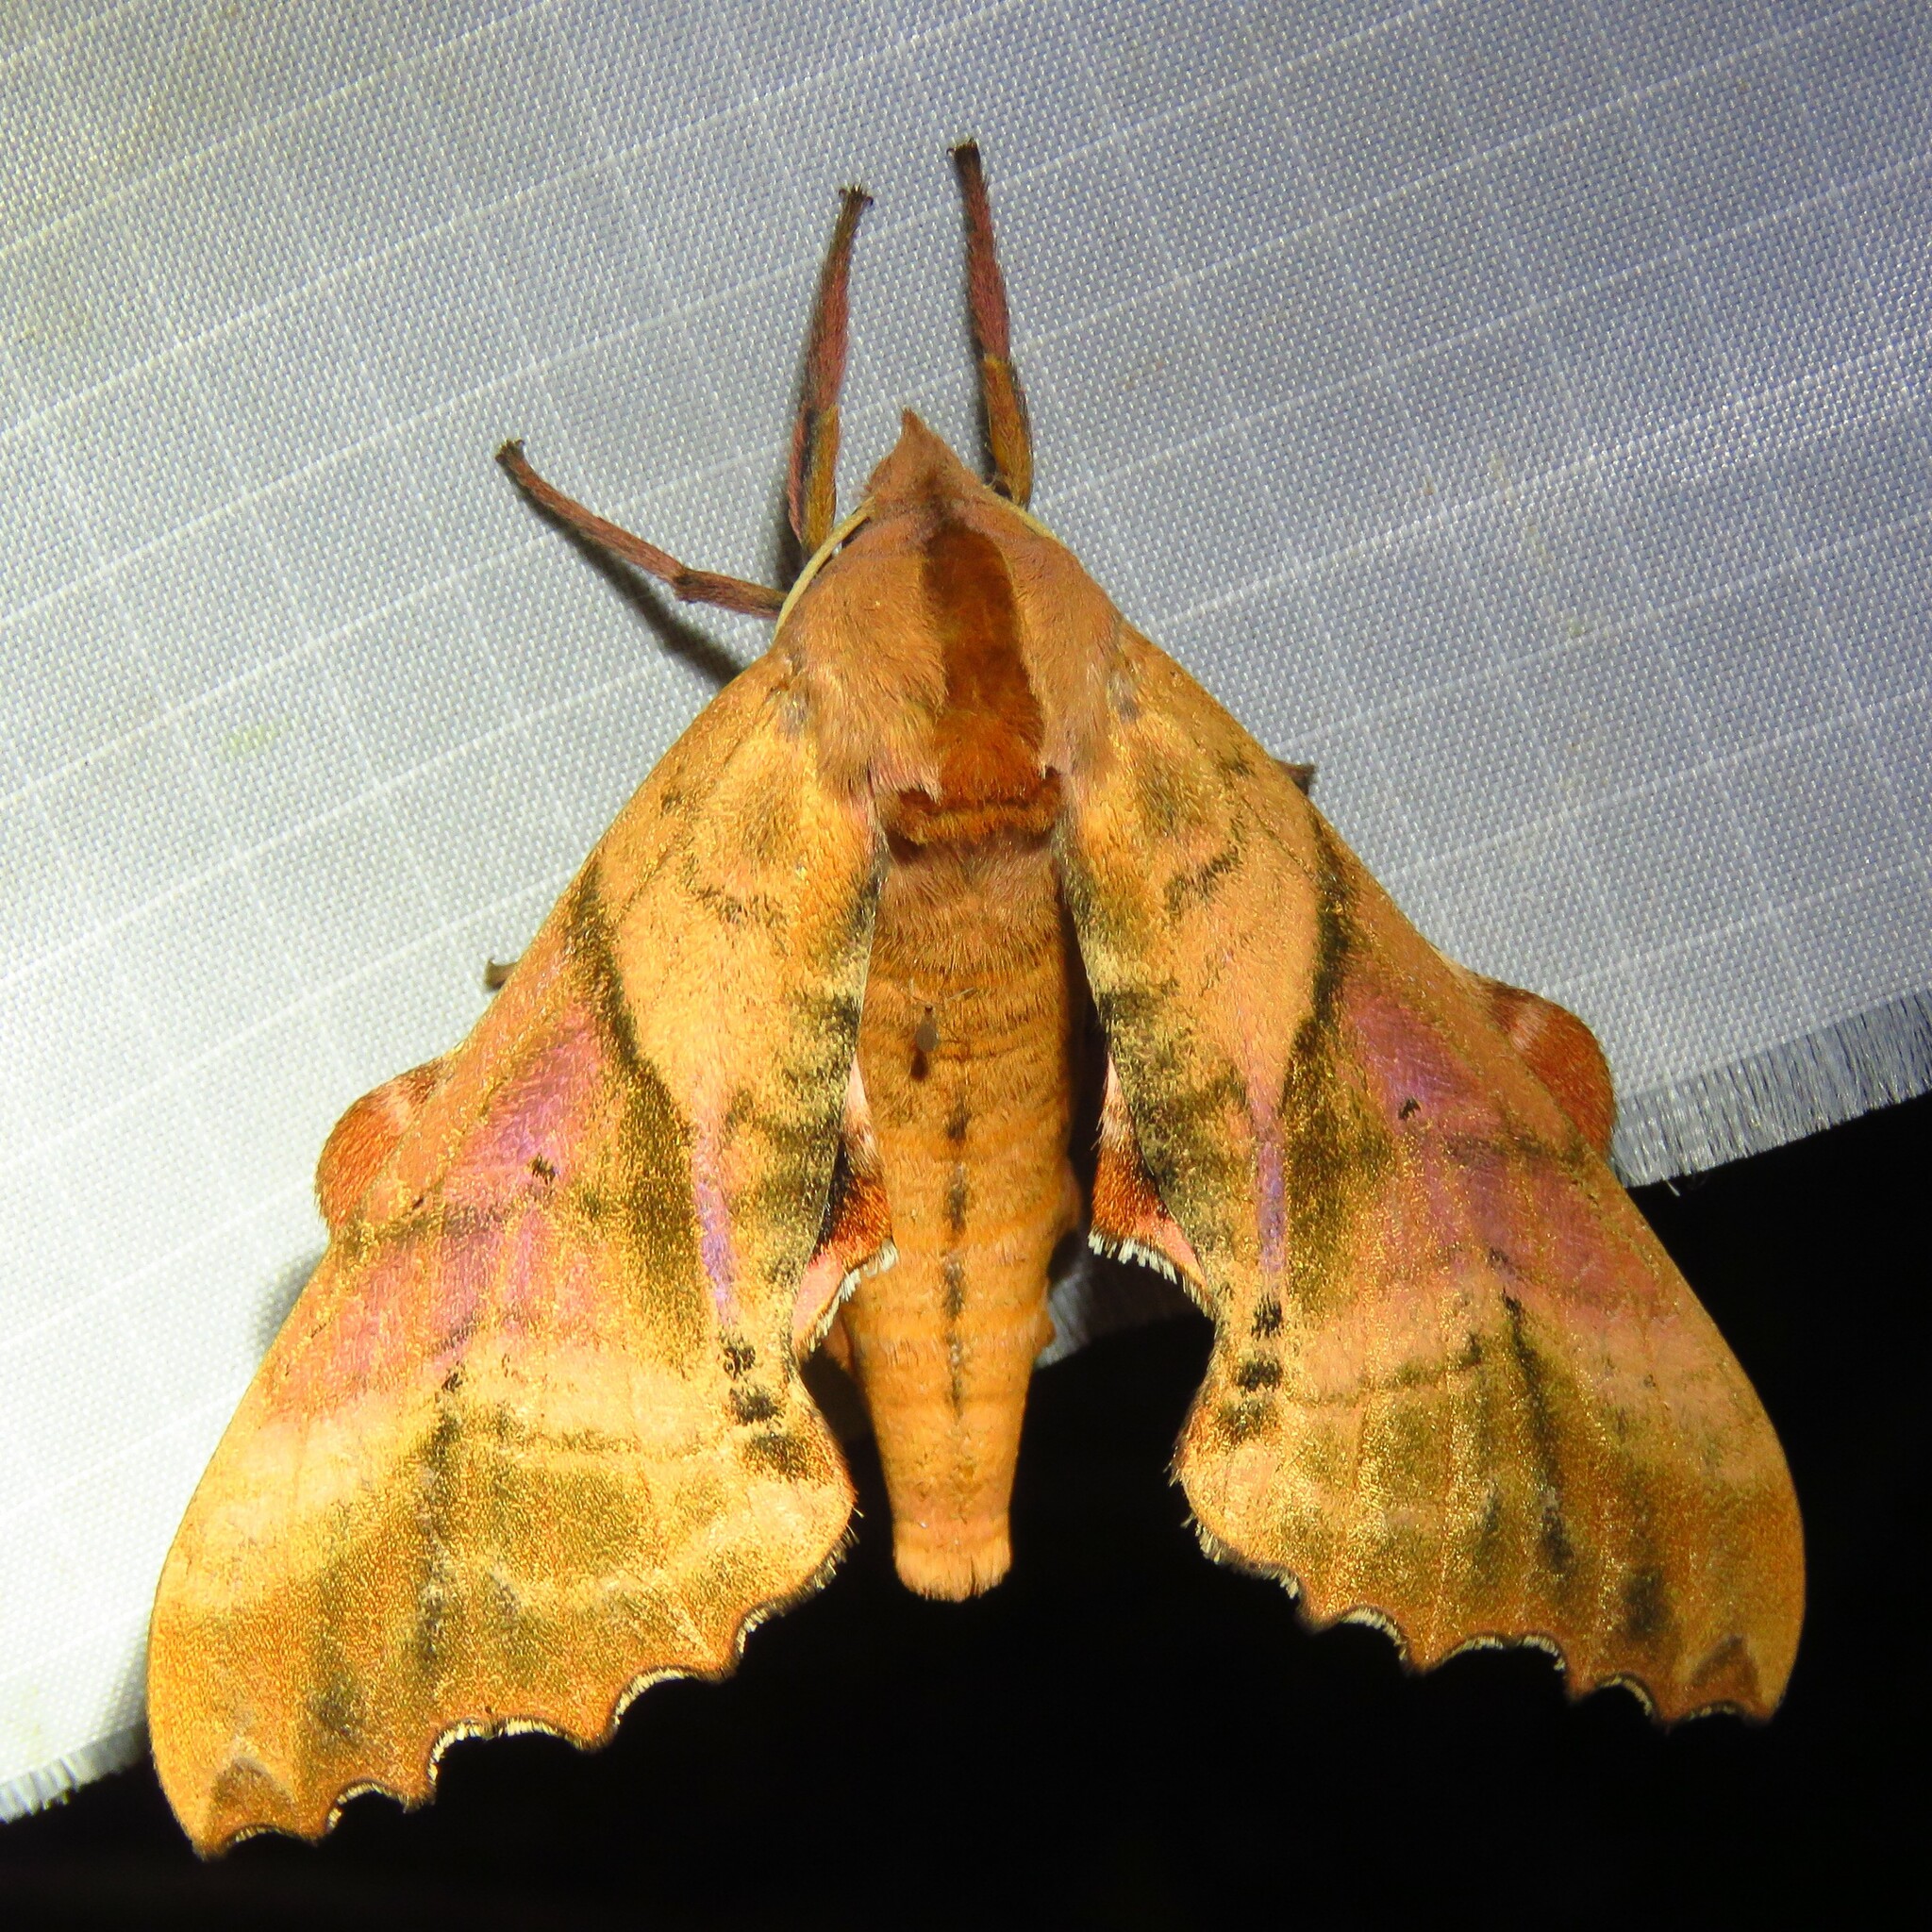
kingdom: Animalia
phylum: Arthropoda
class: Insecta
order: Lepidoptera
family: Sphingidae
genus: Paonias
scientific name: Paonias excaecata
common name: Blind-eyed sphinx
